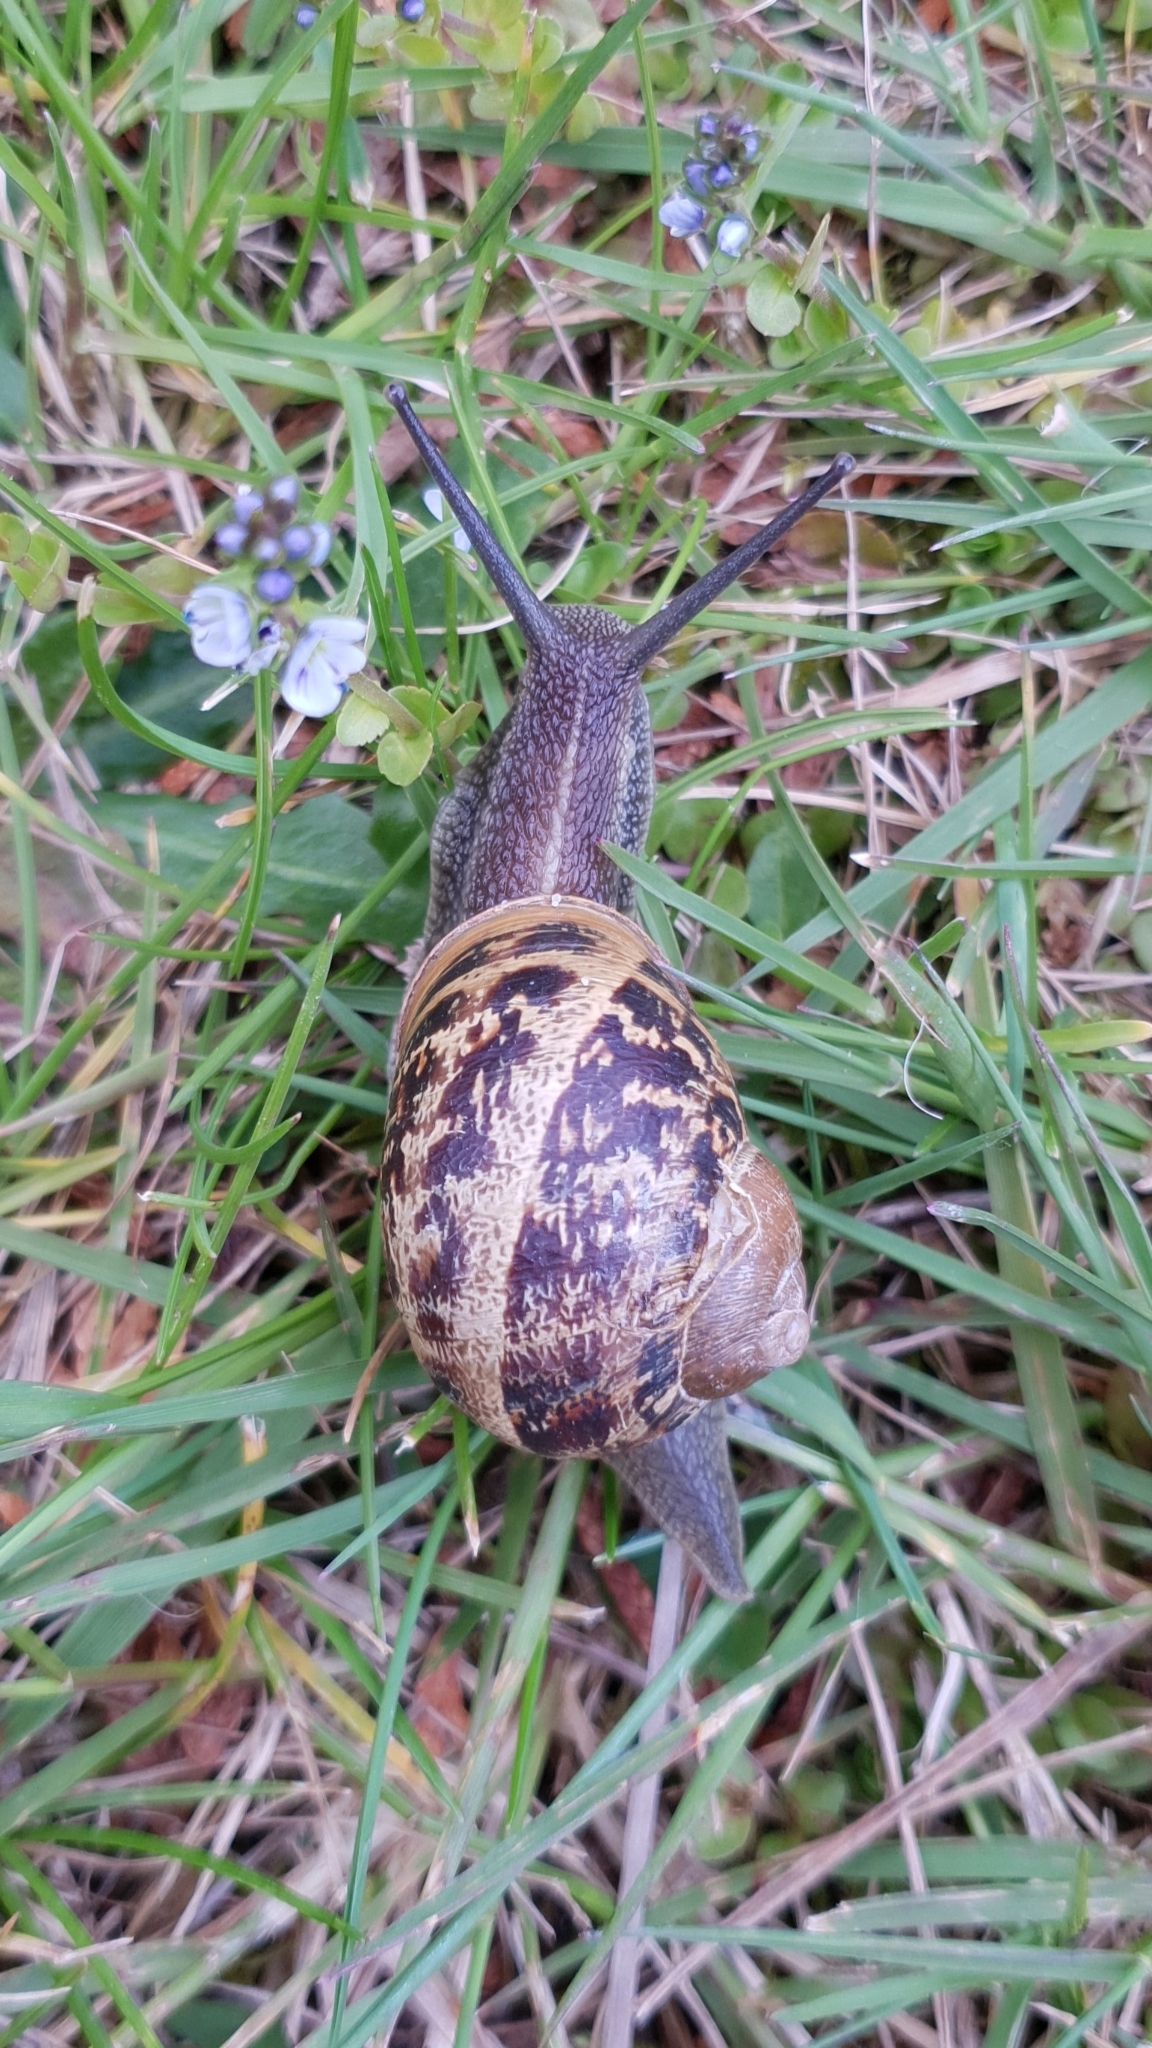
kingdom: Animalia
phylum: Mollusca
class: Gastropoda
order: Stylommatophora
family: Helicidae
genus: Cornu
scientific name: Cornu aspersum
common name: Brown garden snail
